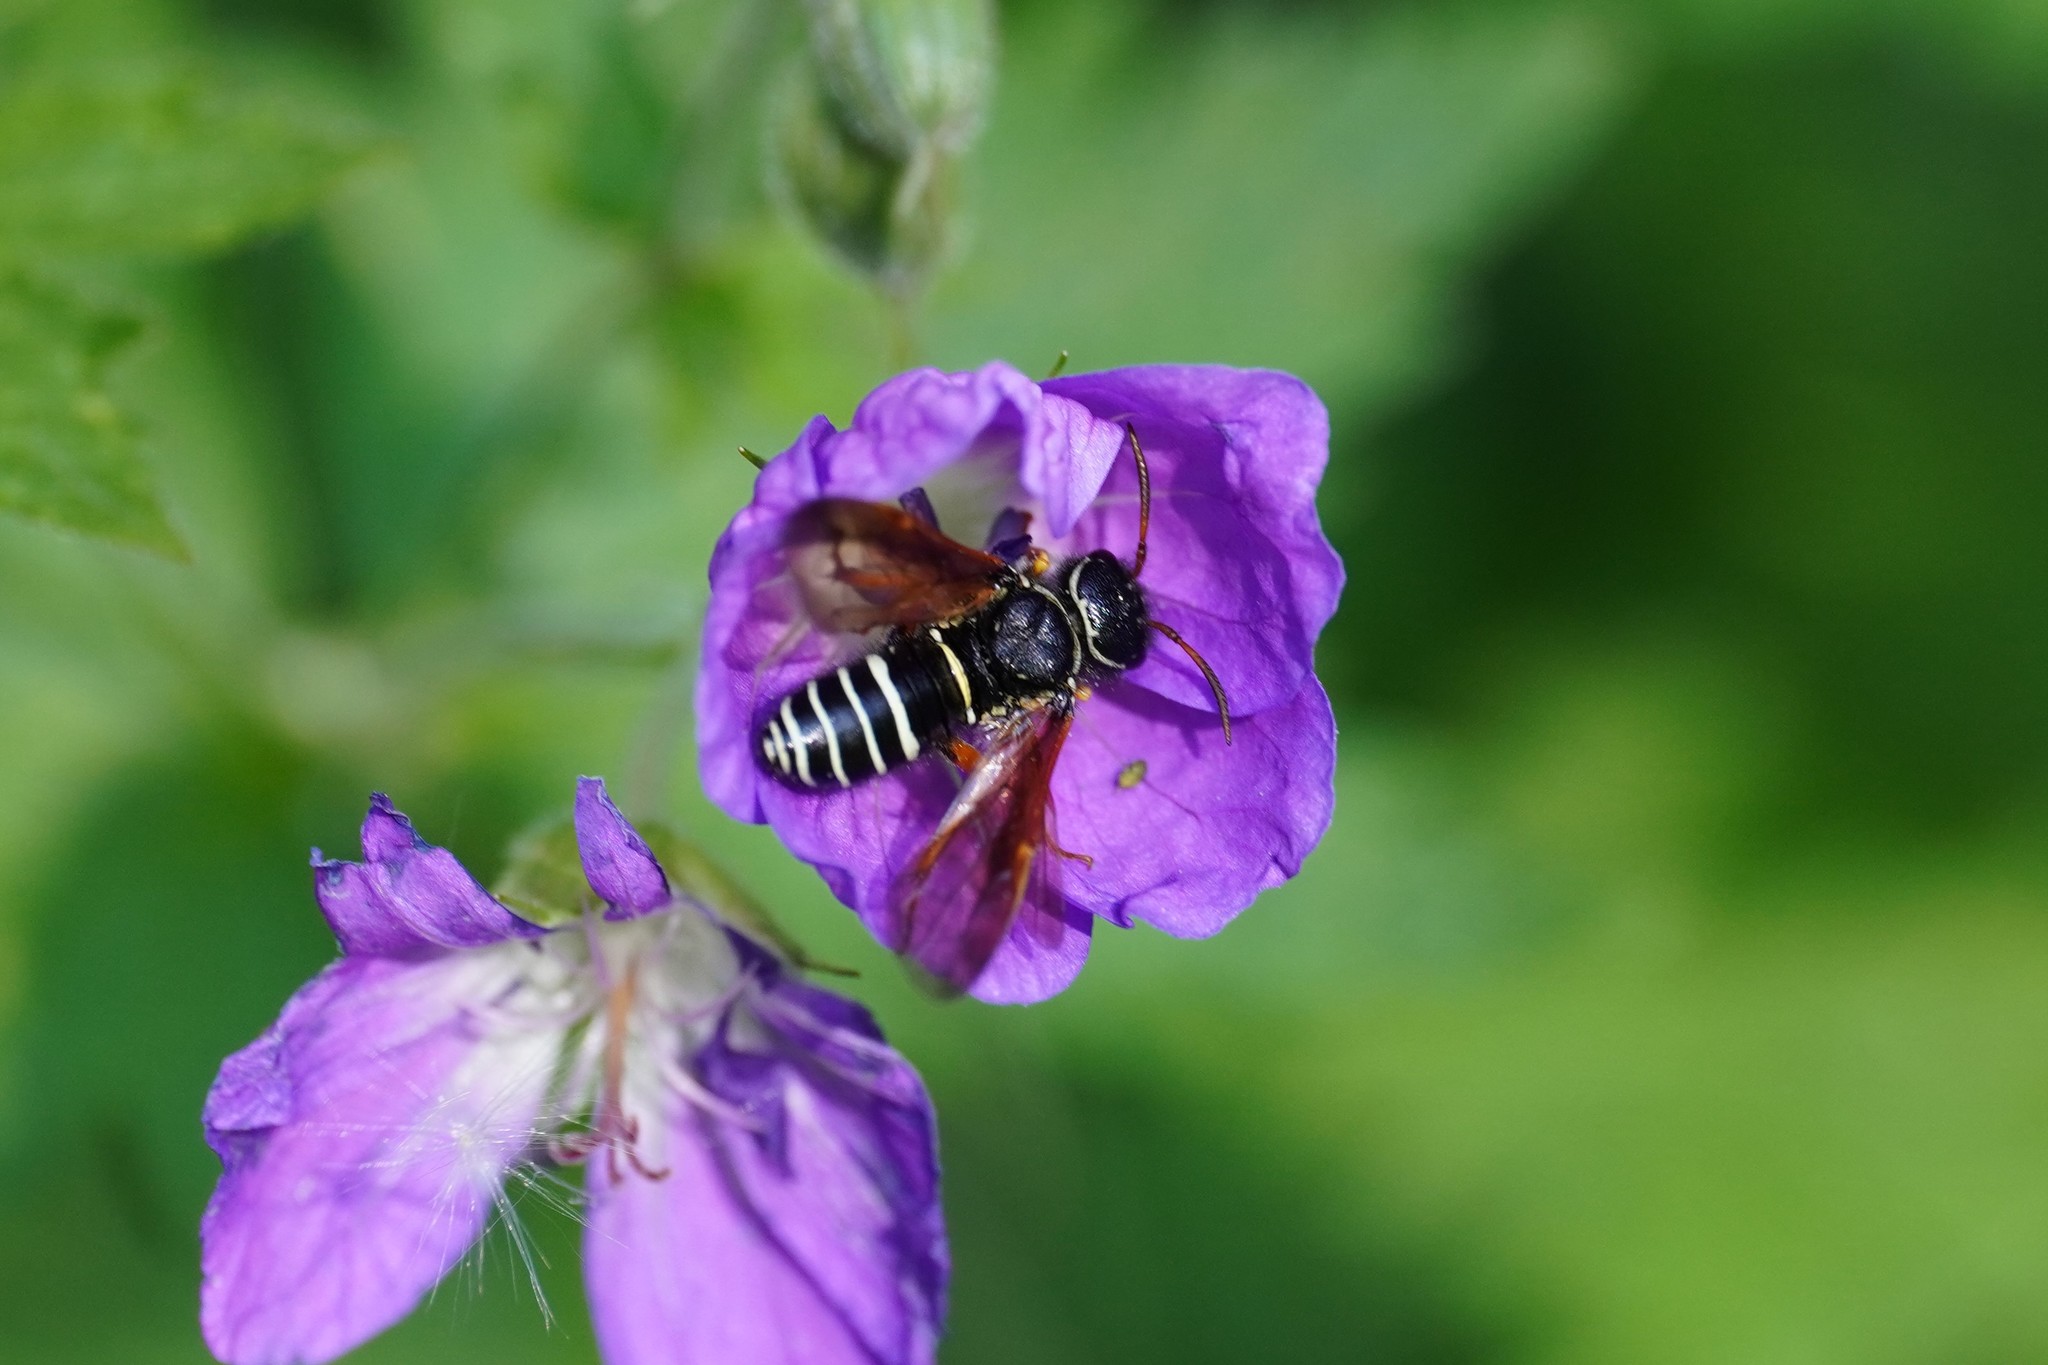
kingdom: Animalia
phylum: Arthropoda
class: Insecta
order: Hymenoptera
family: Megalodontesidae
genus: Megalodontes
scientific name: Megalodontes cephalotes
